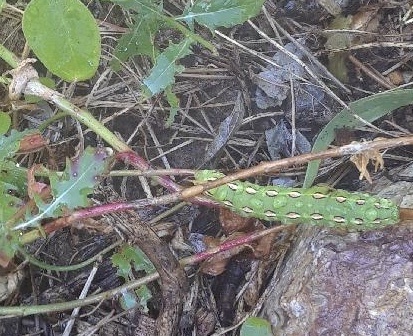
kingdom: Animalia
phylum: Arthropoda
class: Insecta
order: Lepidoptera
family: Sphingidae
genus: Hyles
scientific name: Hyles lineata
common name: White-lined sphinx
